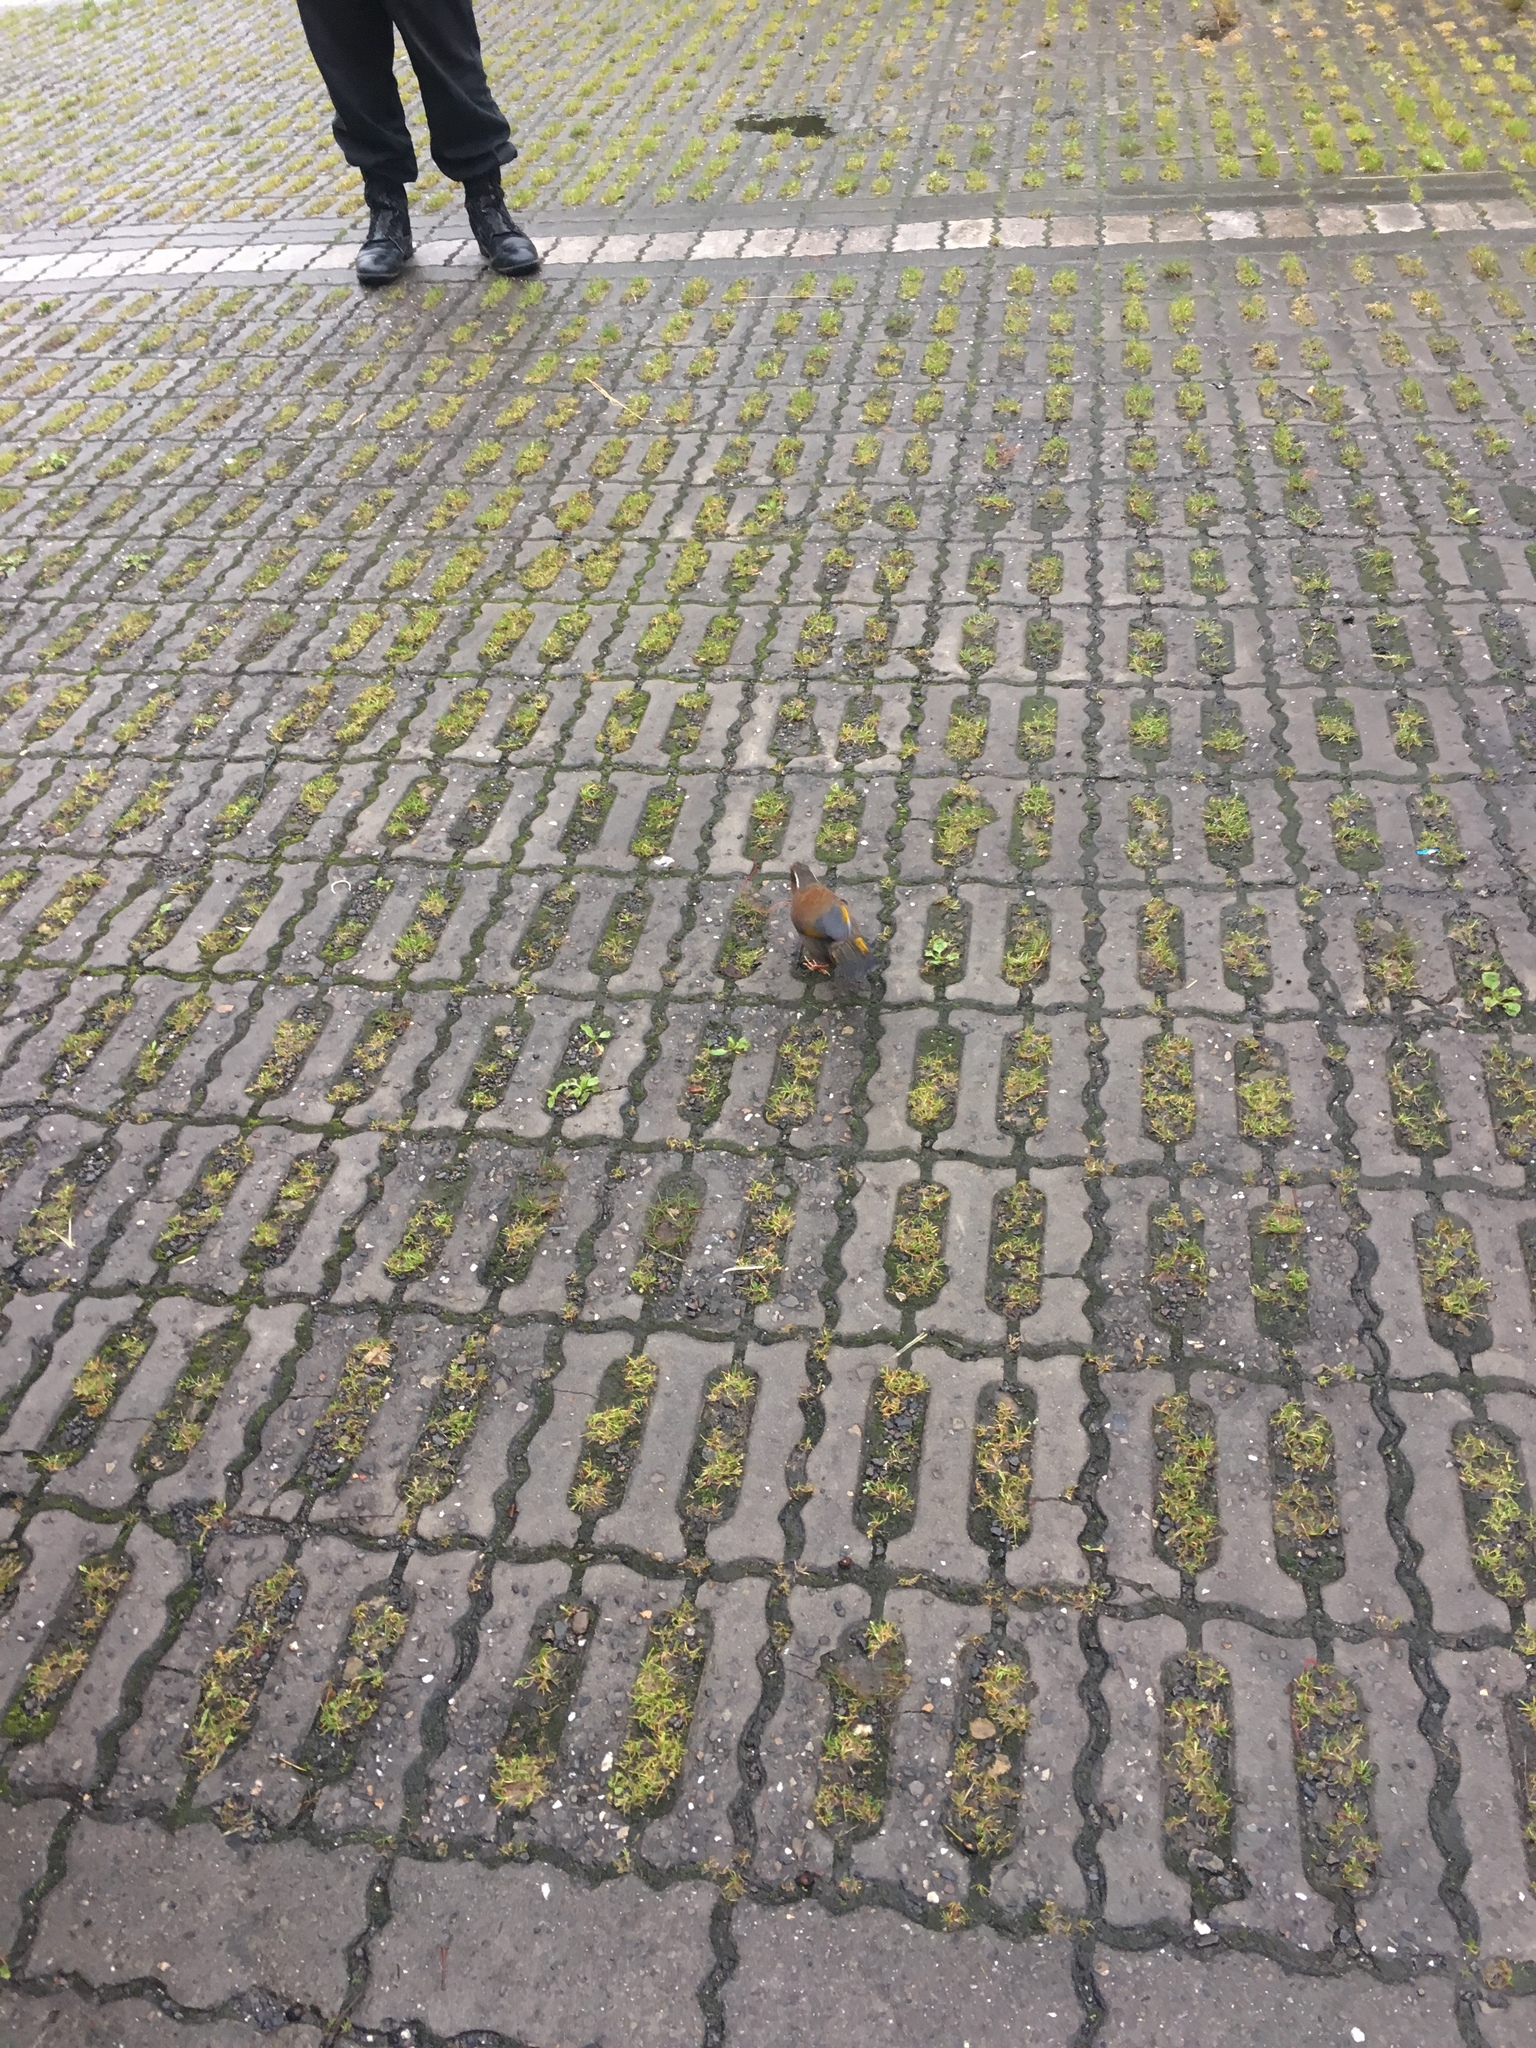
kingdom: Animalia
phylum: Chordata
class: Aves
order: Passeriformes
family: Leiothrichidae
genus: Trochalopteron
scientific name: Trochalopteron morrisonianum
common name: White-whiskered laughingthrush
